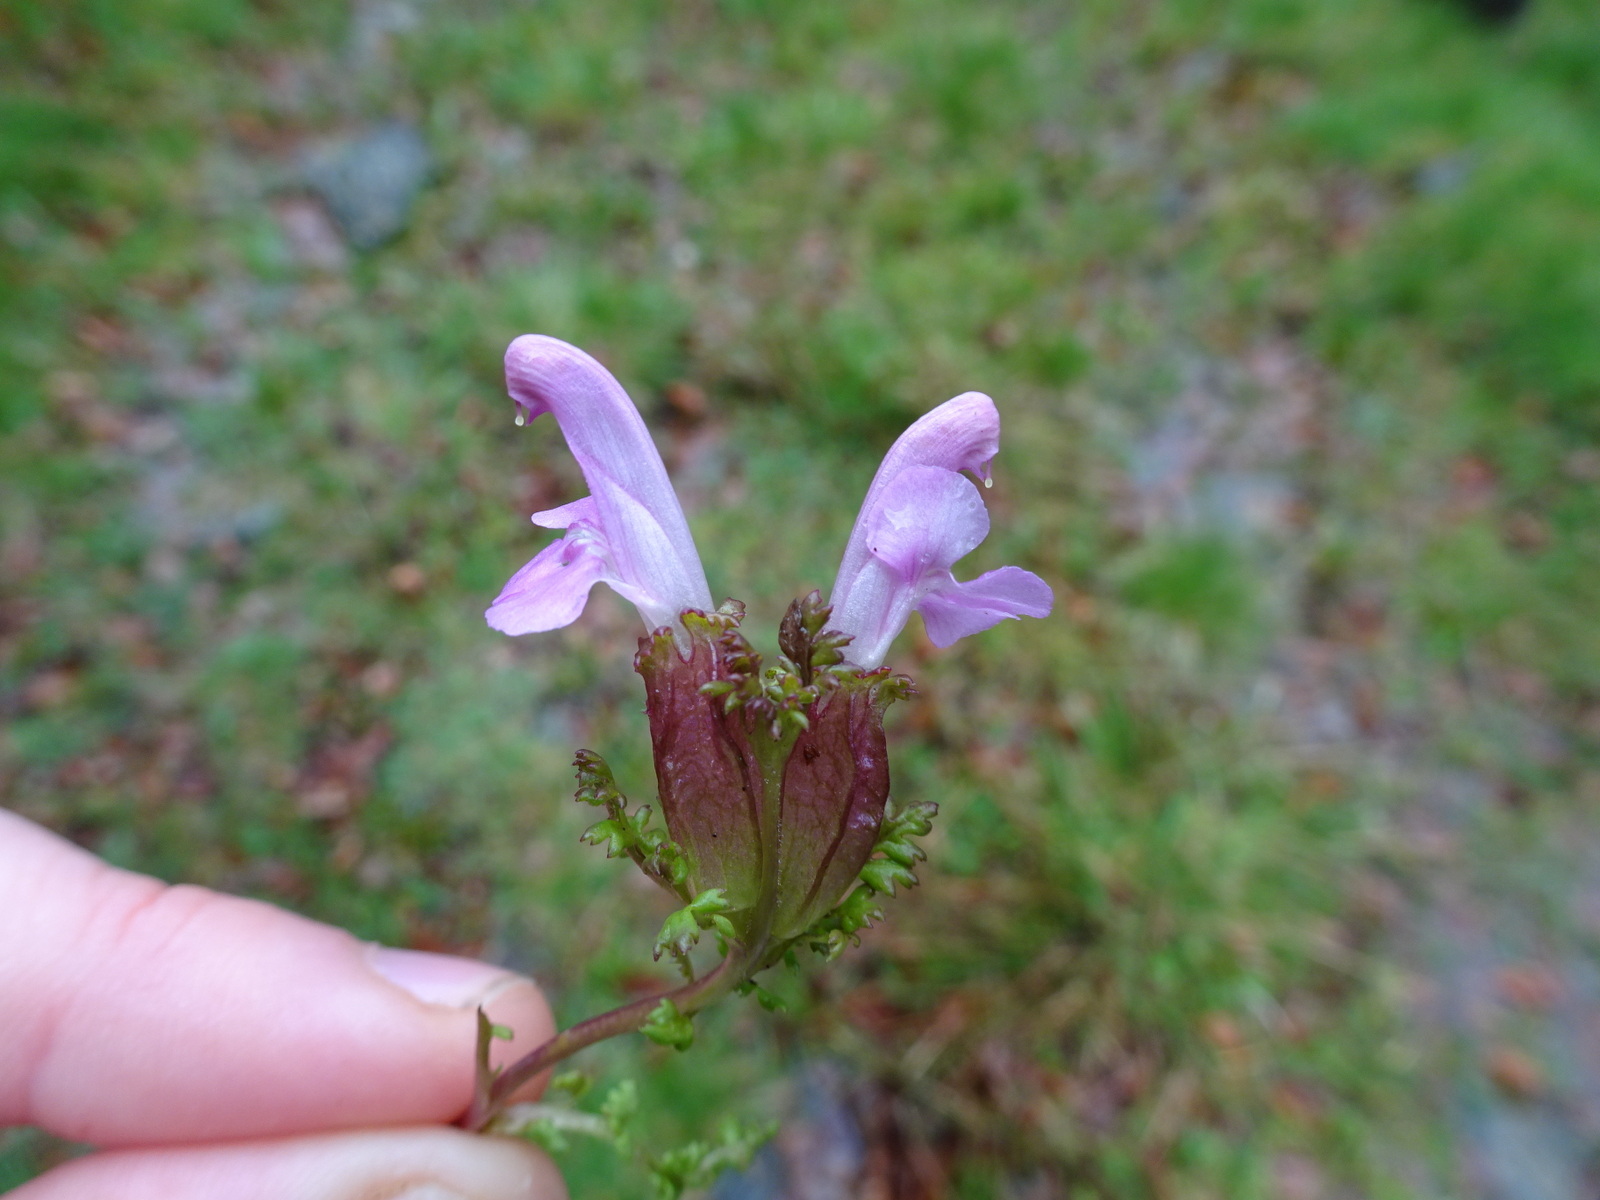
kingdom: Plantae
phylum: Tracheophyta
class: Magnoliopsida
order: Lamiales
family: Orobanchaceae
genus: Pedicularis
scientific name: Pedicularis sylvatica
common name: Lousewort
